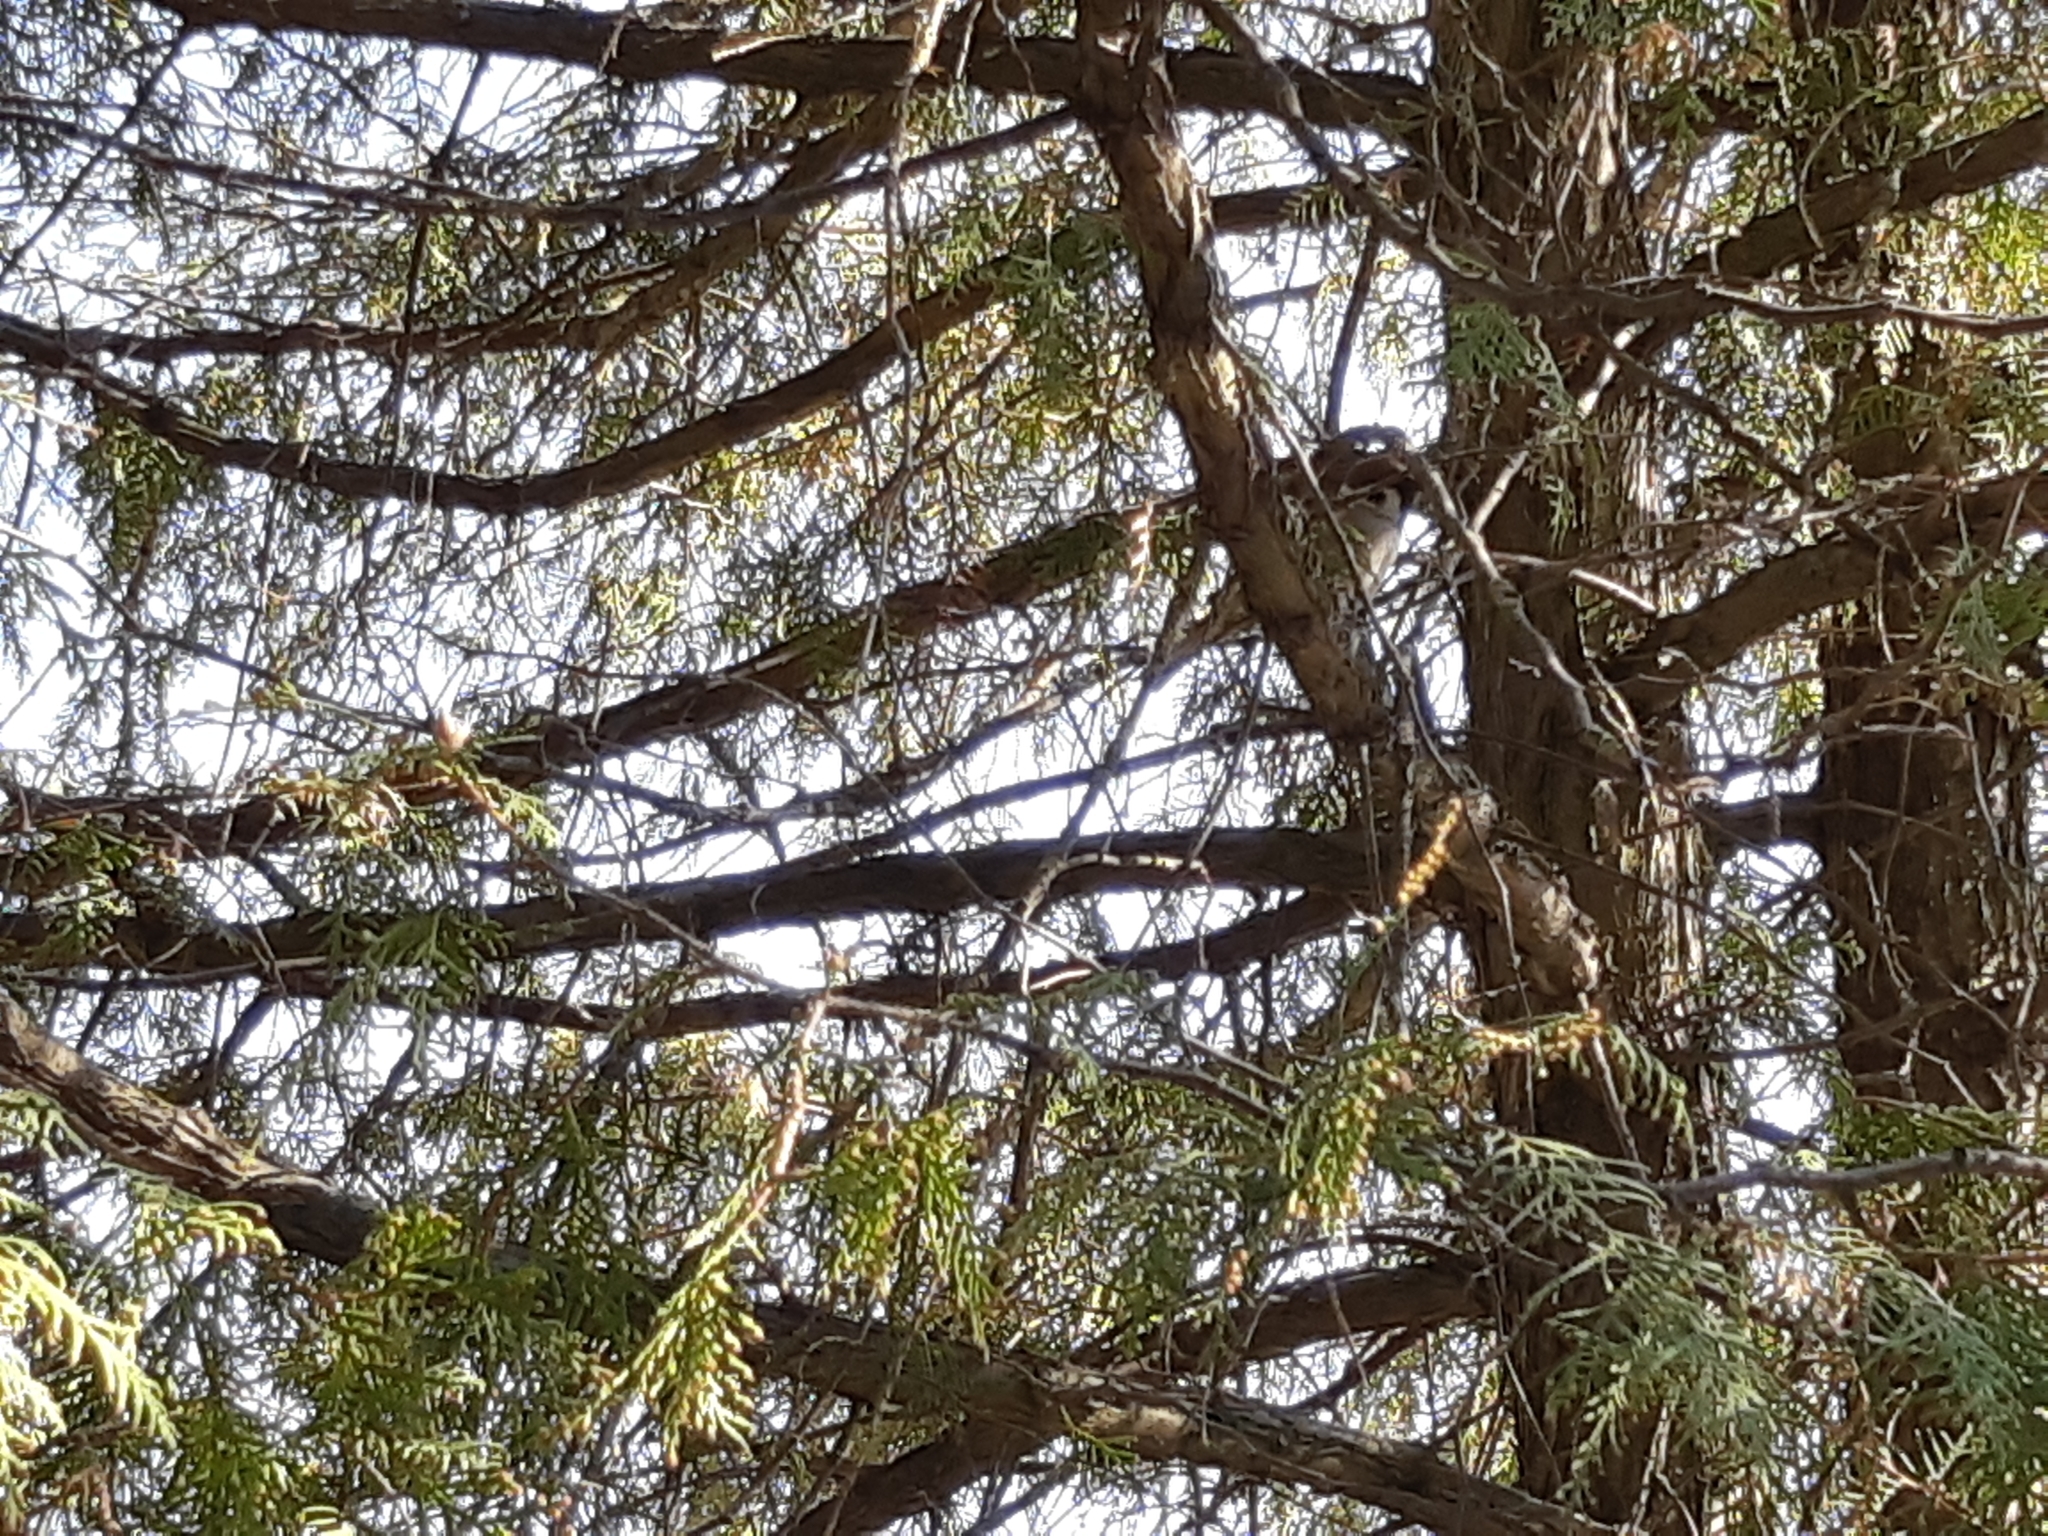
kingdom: Animalia
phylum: Chordata
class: Aves
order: Passeriformes
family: Passeridae
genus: Passer
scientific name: Passer montanus
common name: Eurasian tree sparrow
